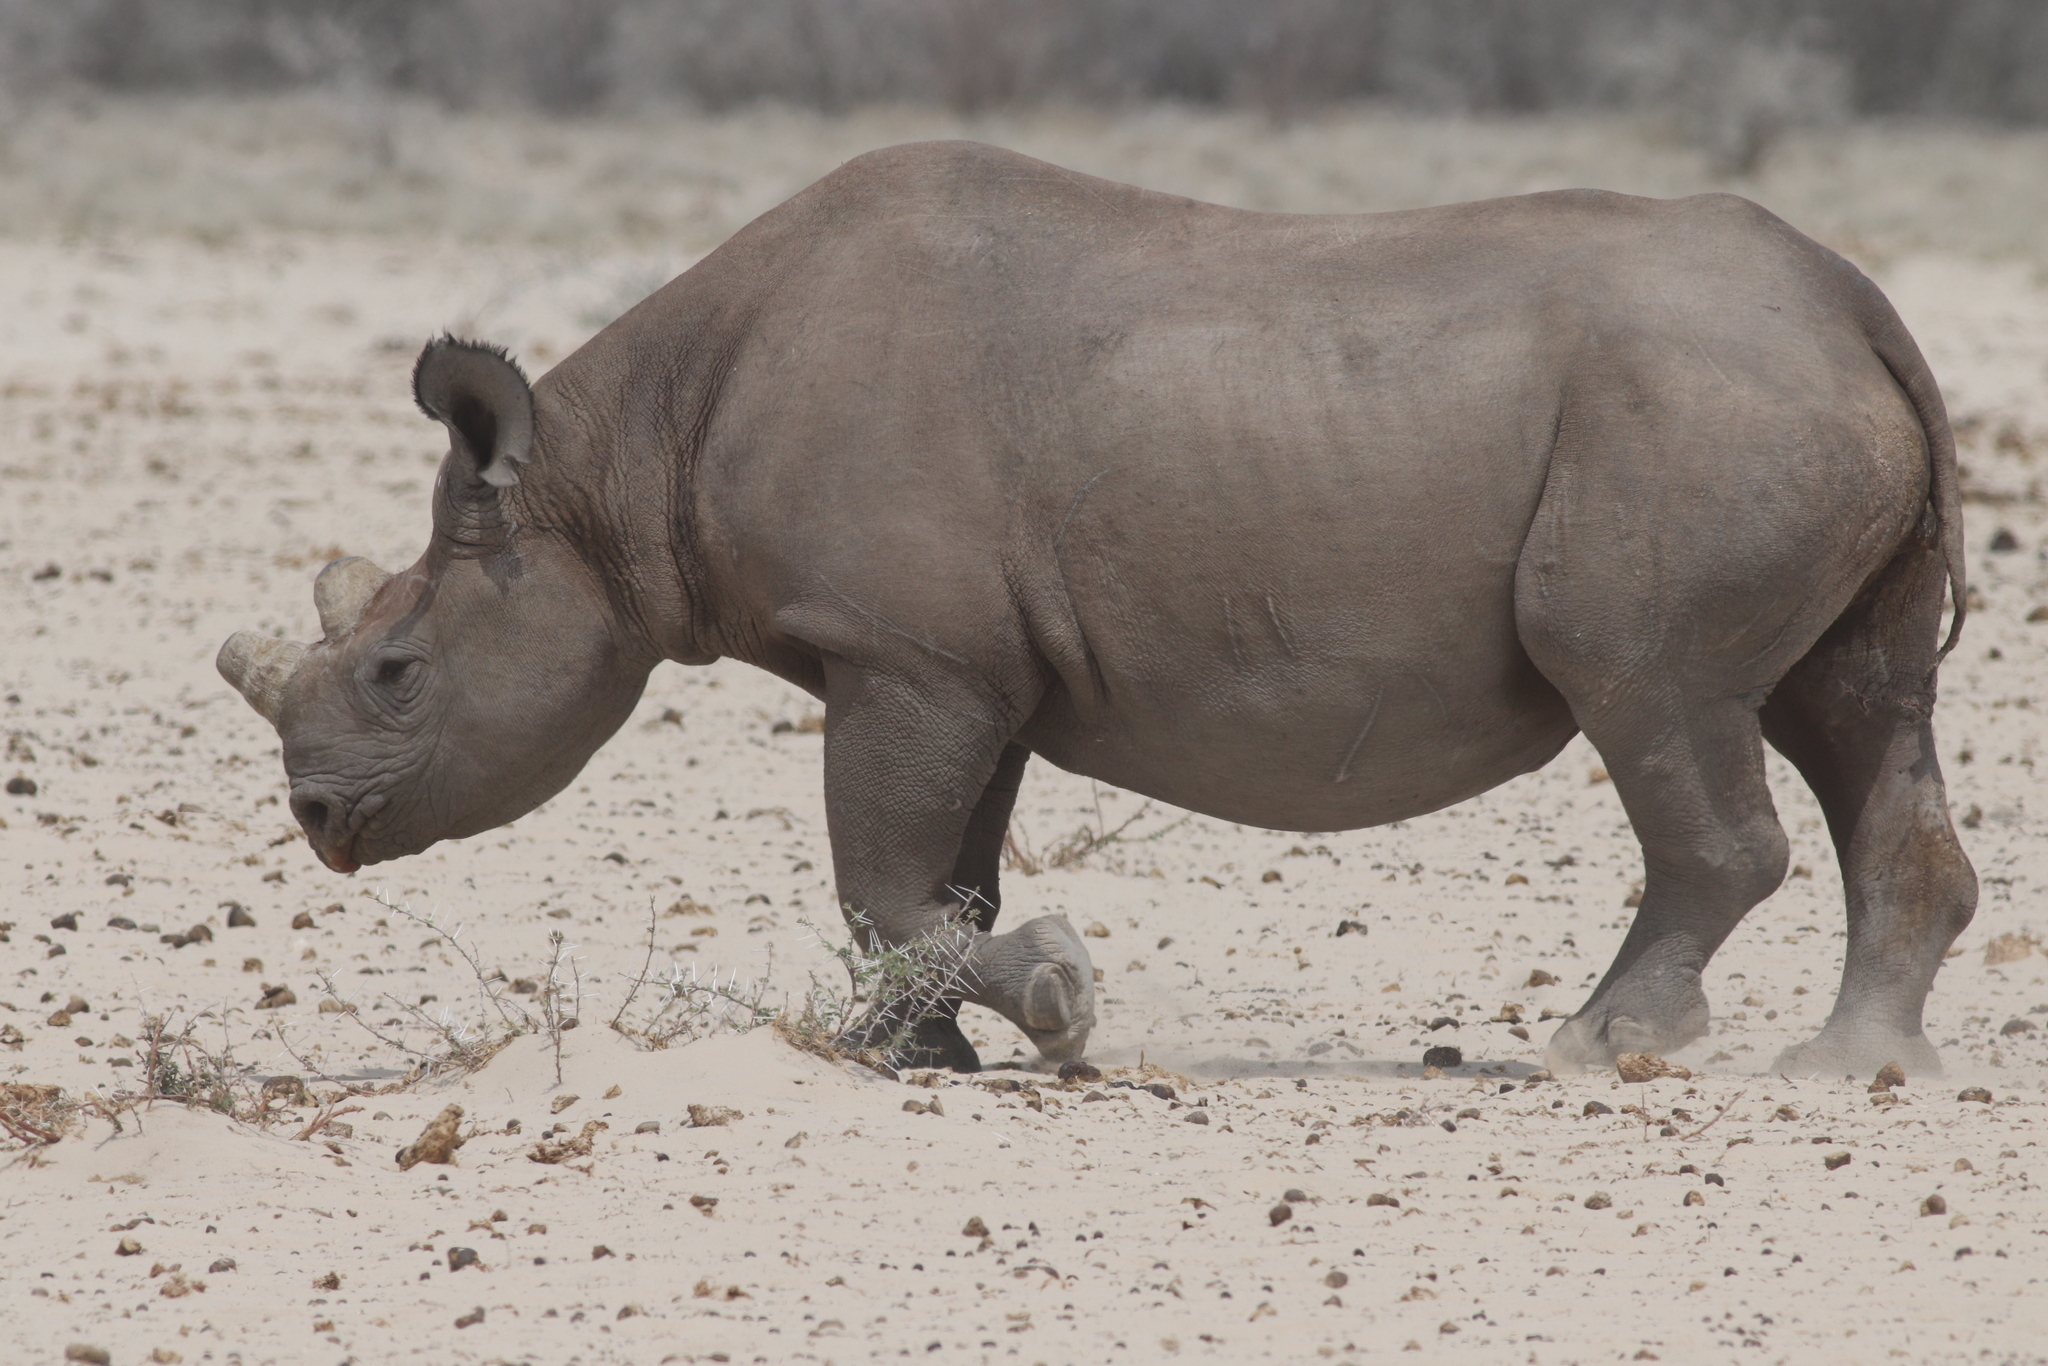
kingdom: Animalia
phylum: Chordata
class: Mammalia
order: Perissodactyla
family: Rhinocerotidae
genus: Diceros
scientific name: Diceros bicornis
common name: Black rhinoceros
